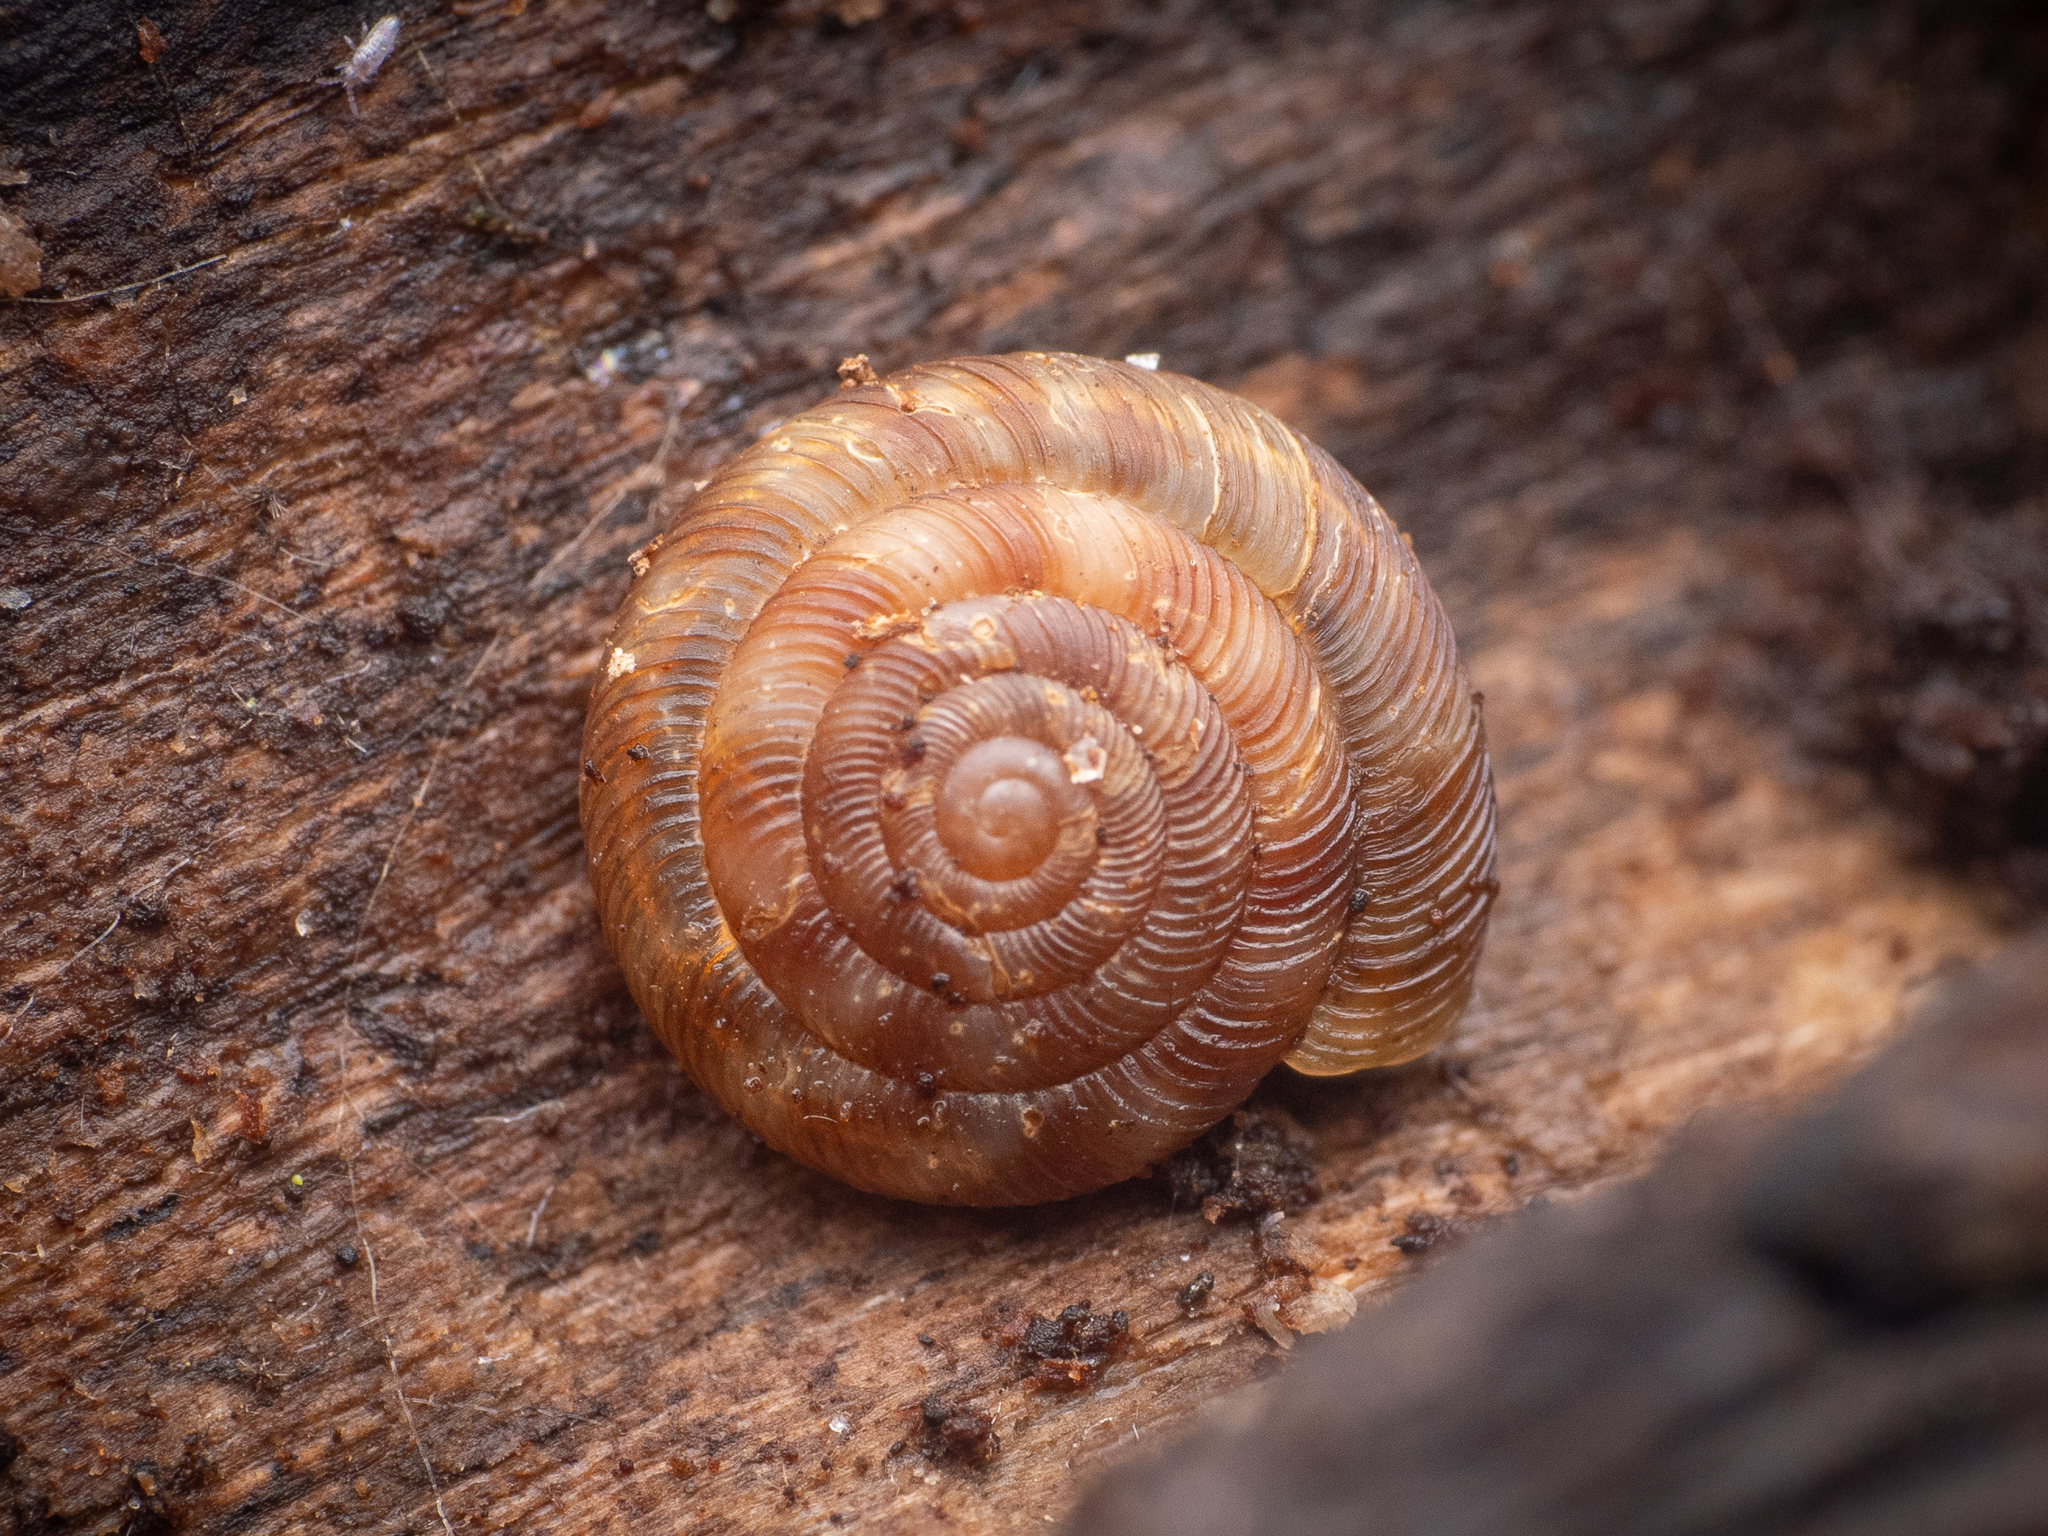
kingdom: Animalia
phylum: Mollusca
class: Gastropoda
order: Stylommatophora
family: Discidae
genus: Discus
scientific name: Discus rotundatus
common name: Rounded snail
